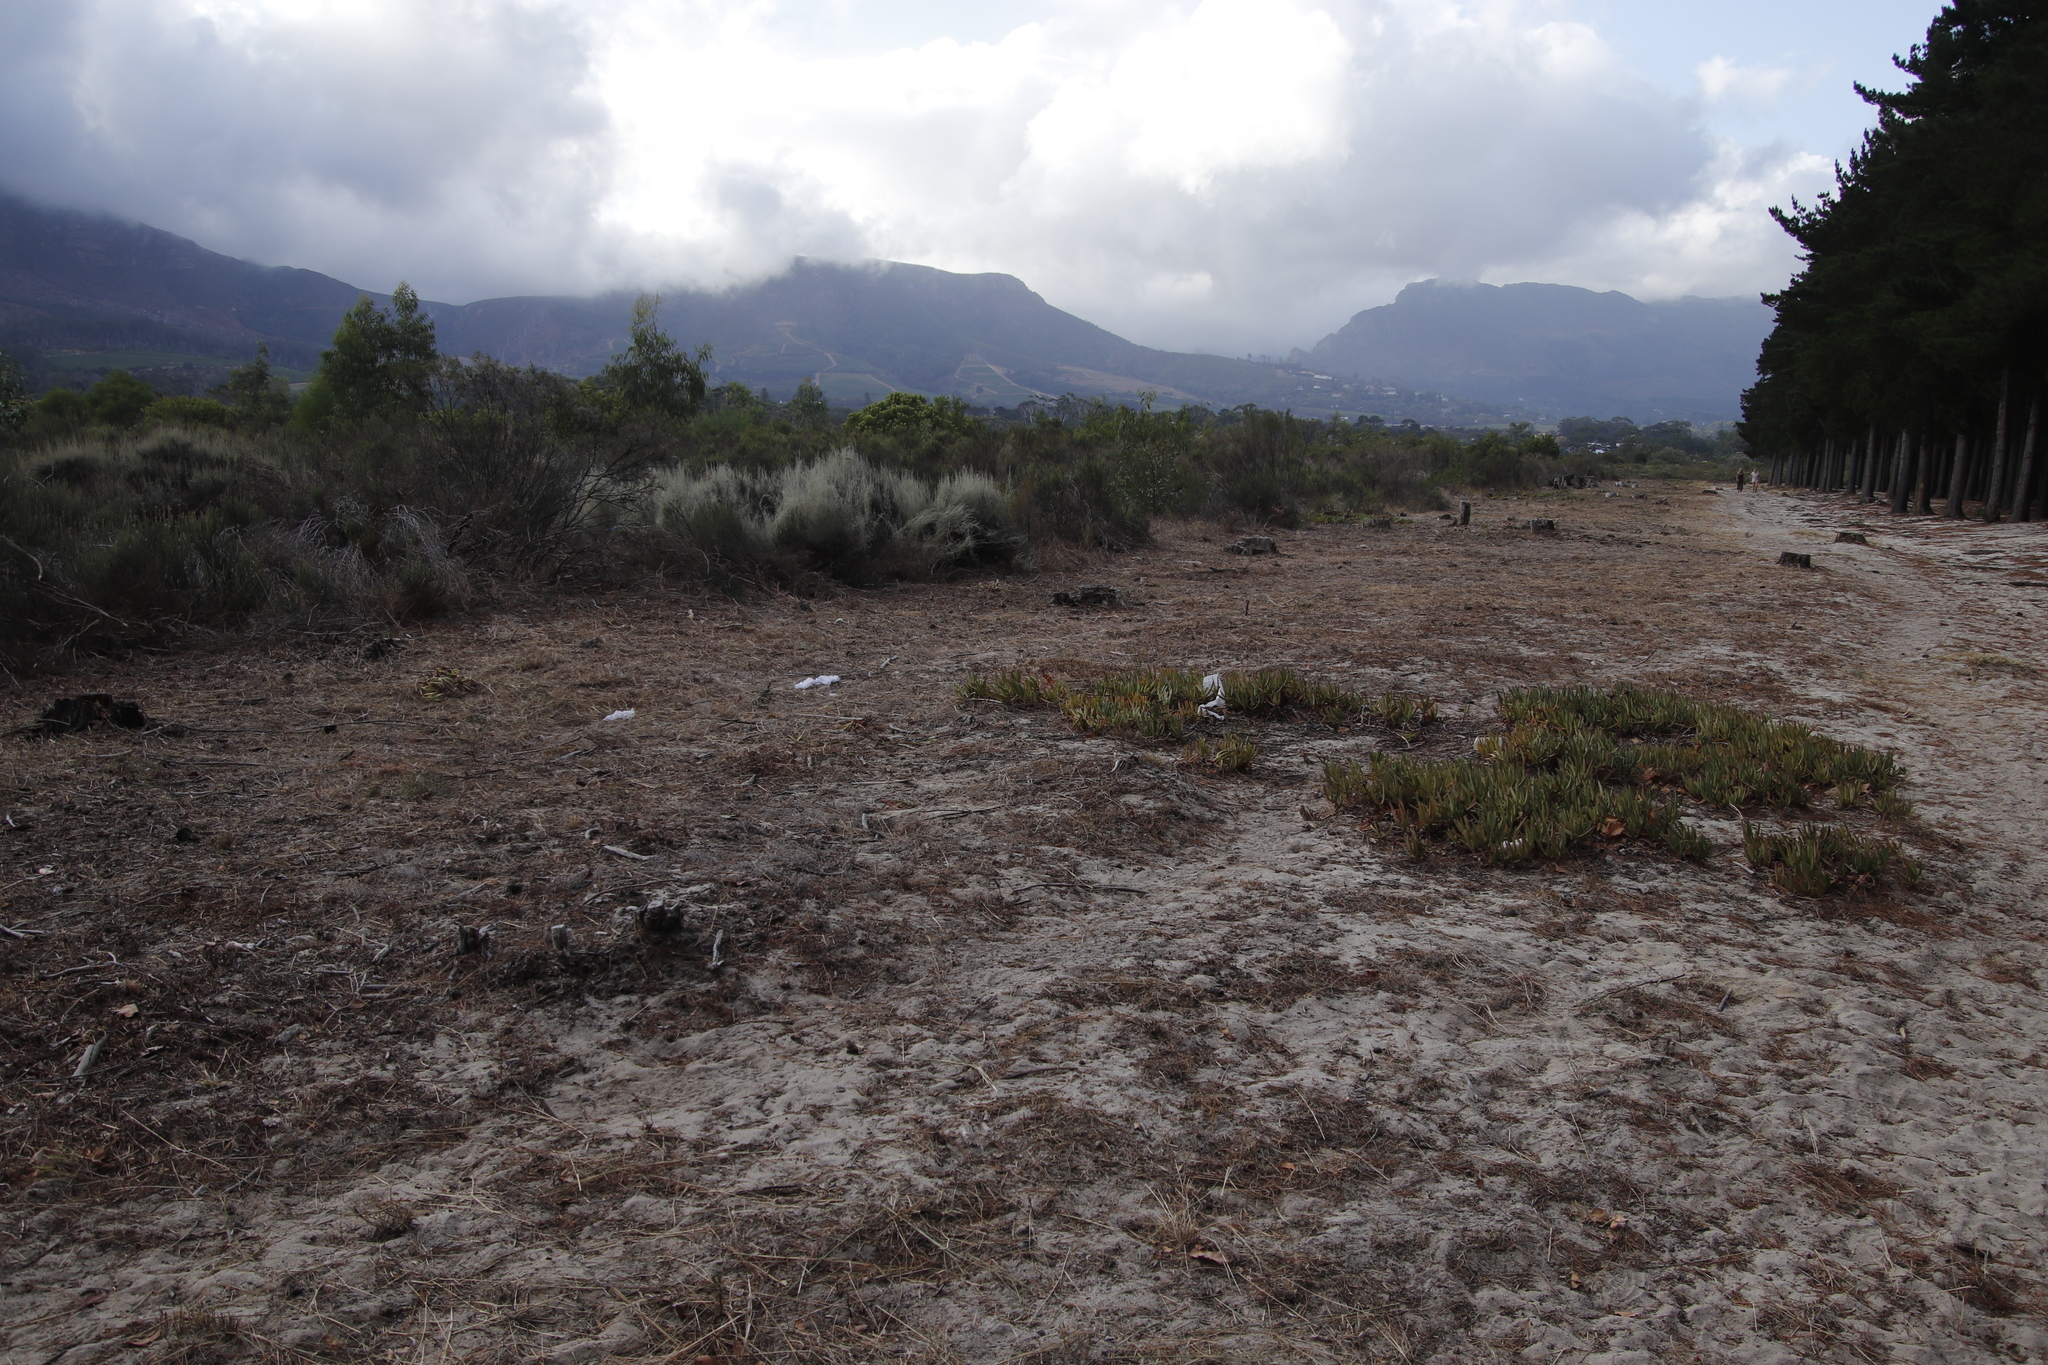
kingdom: Plantae
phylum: Tracheophyta
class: Magnoliopsida
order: Caryophyllales
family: Aizoaceae
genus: Carpobrotus
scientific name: Carpobrotus edulis
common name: Hottentot-fig
